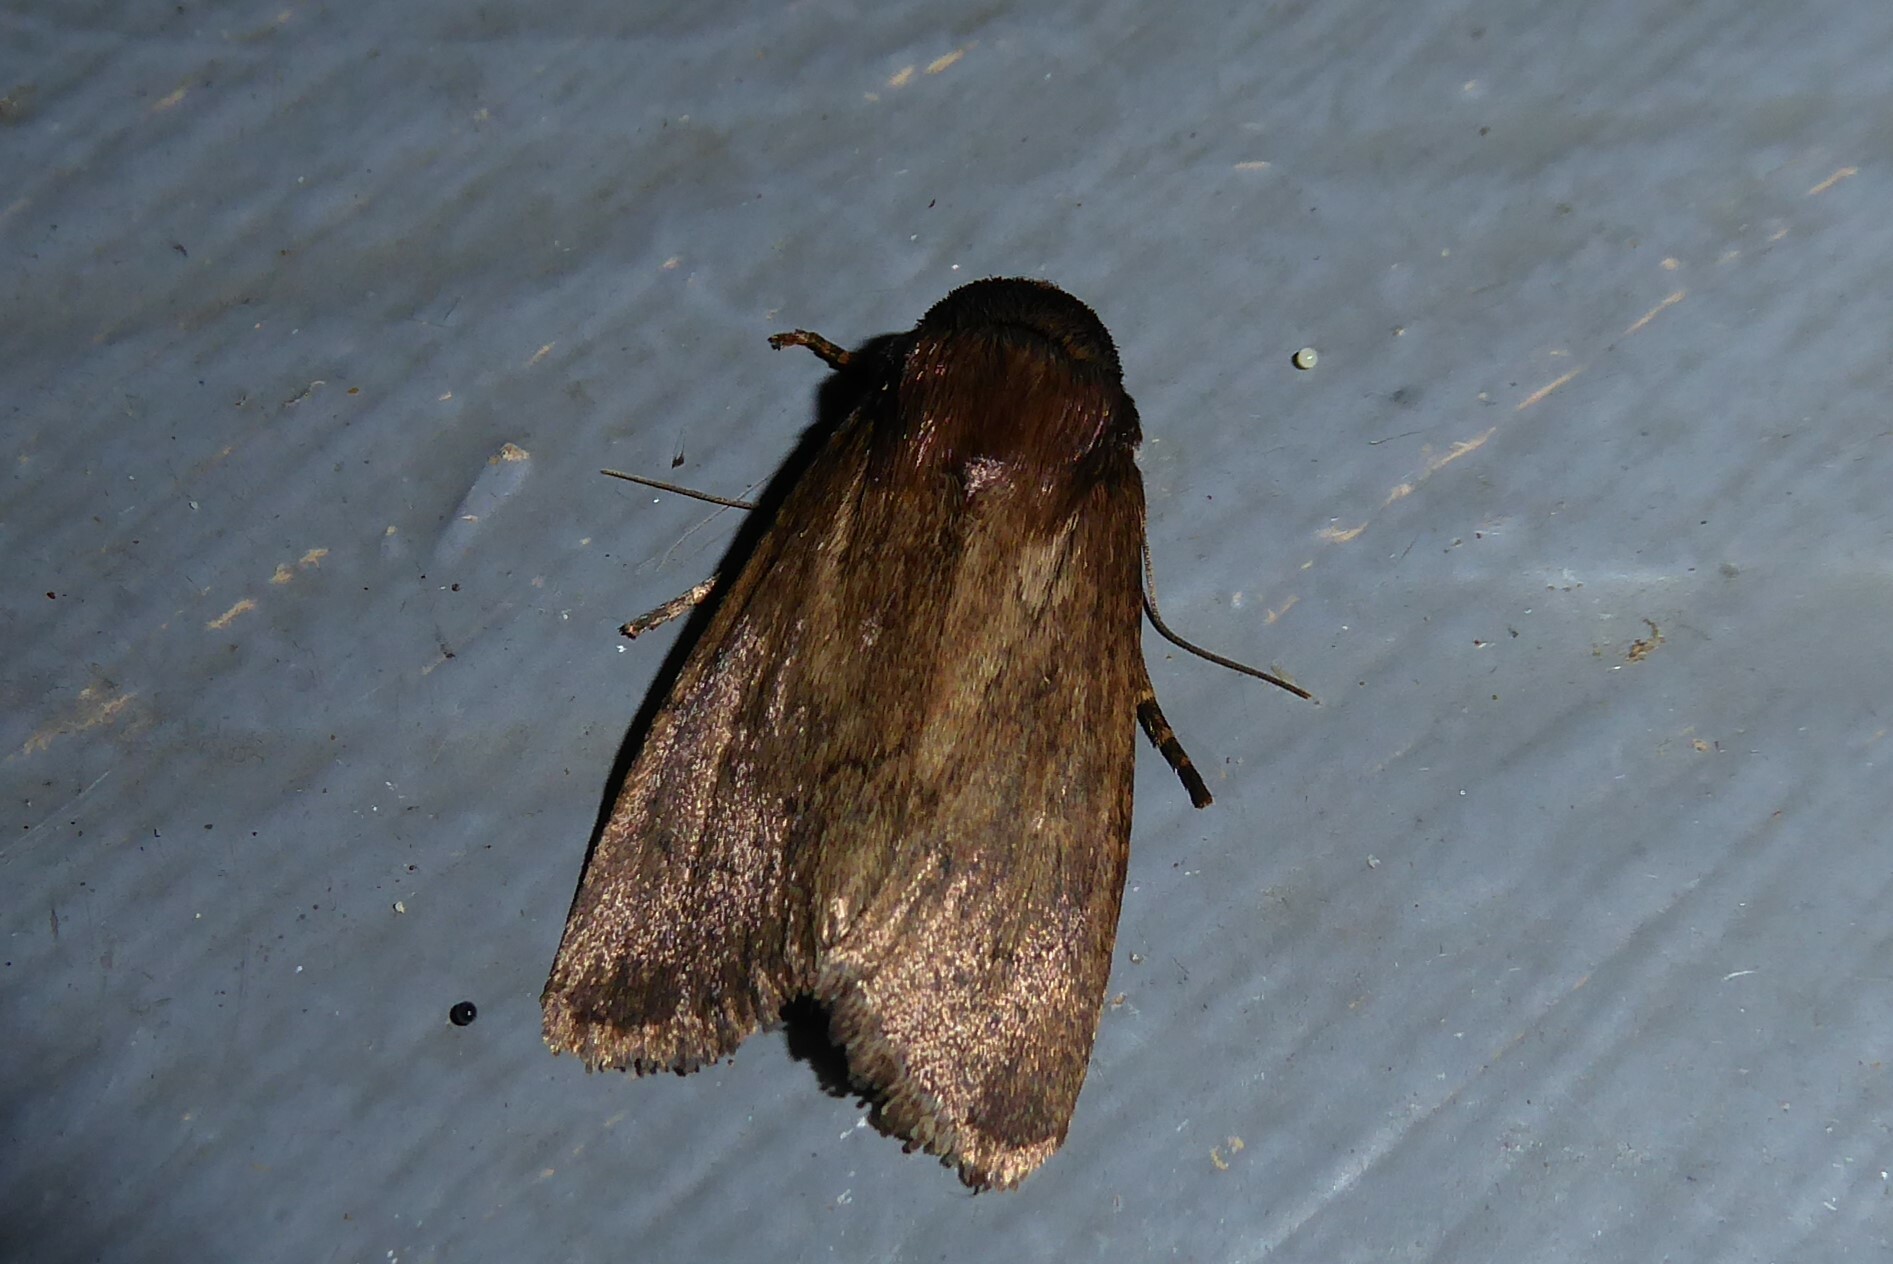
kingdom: Animalia
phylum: Arthropoda
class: Insecta
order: Lepidoptera
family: Noctuidae
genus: Bityla
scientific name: Bityla defigurata
